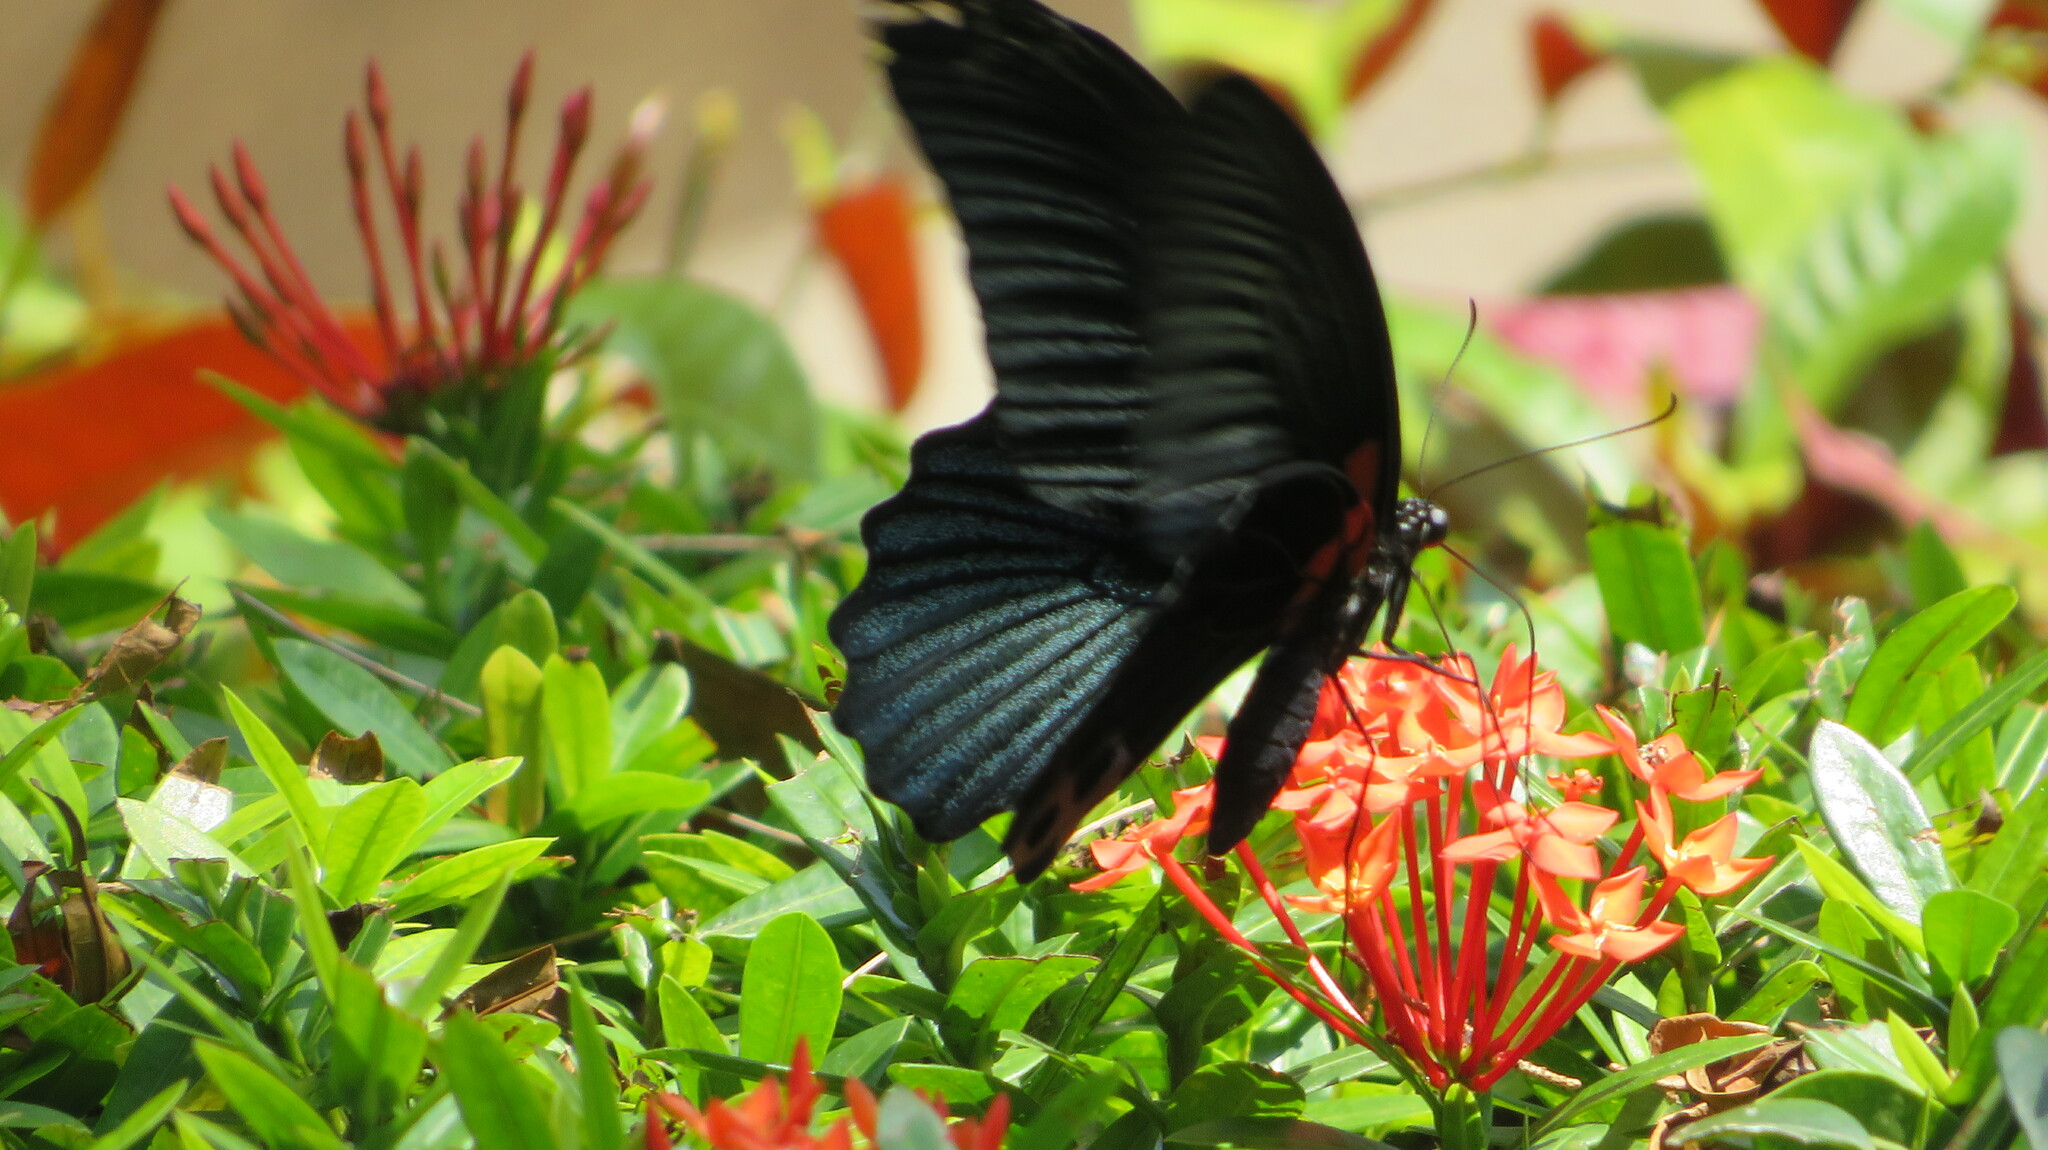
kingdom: Animalia
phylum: Arthropoda
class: Insecta
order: Lepidoptera
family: Papilionidae
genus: Papilio
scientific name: Papilio memnon
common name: Great mormon
